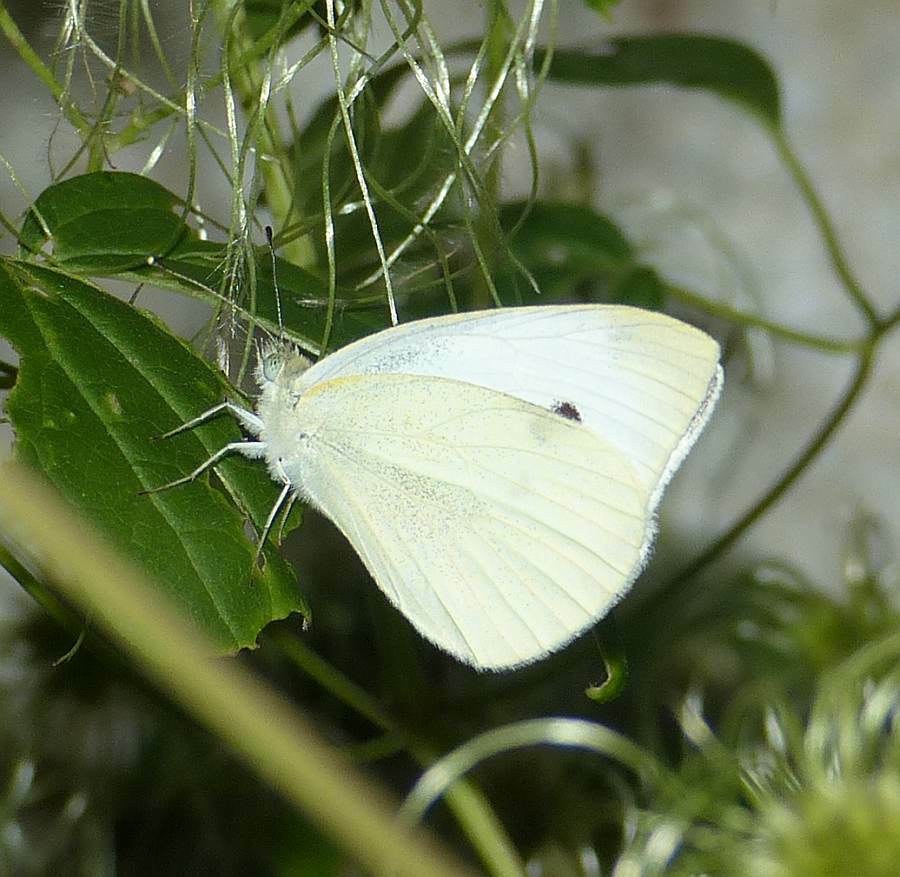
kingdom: Animalia
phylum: Arthropoda
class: Insecta
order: Lepidoptera
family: Pieridae
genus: Pieris
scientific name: Pieris rapae
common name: Small white
